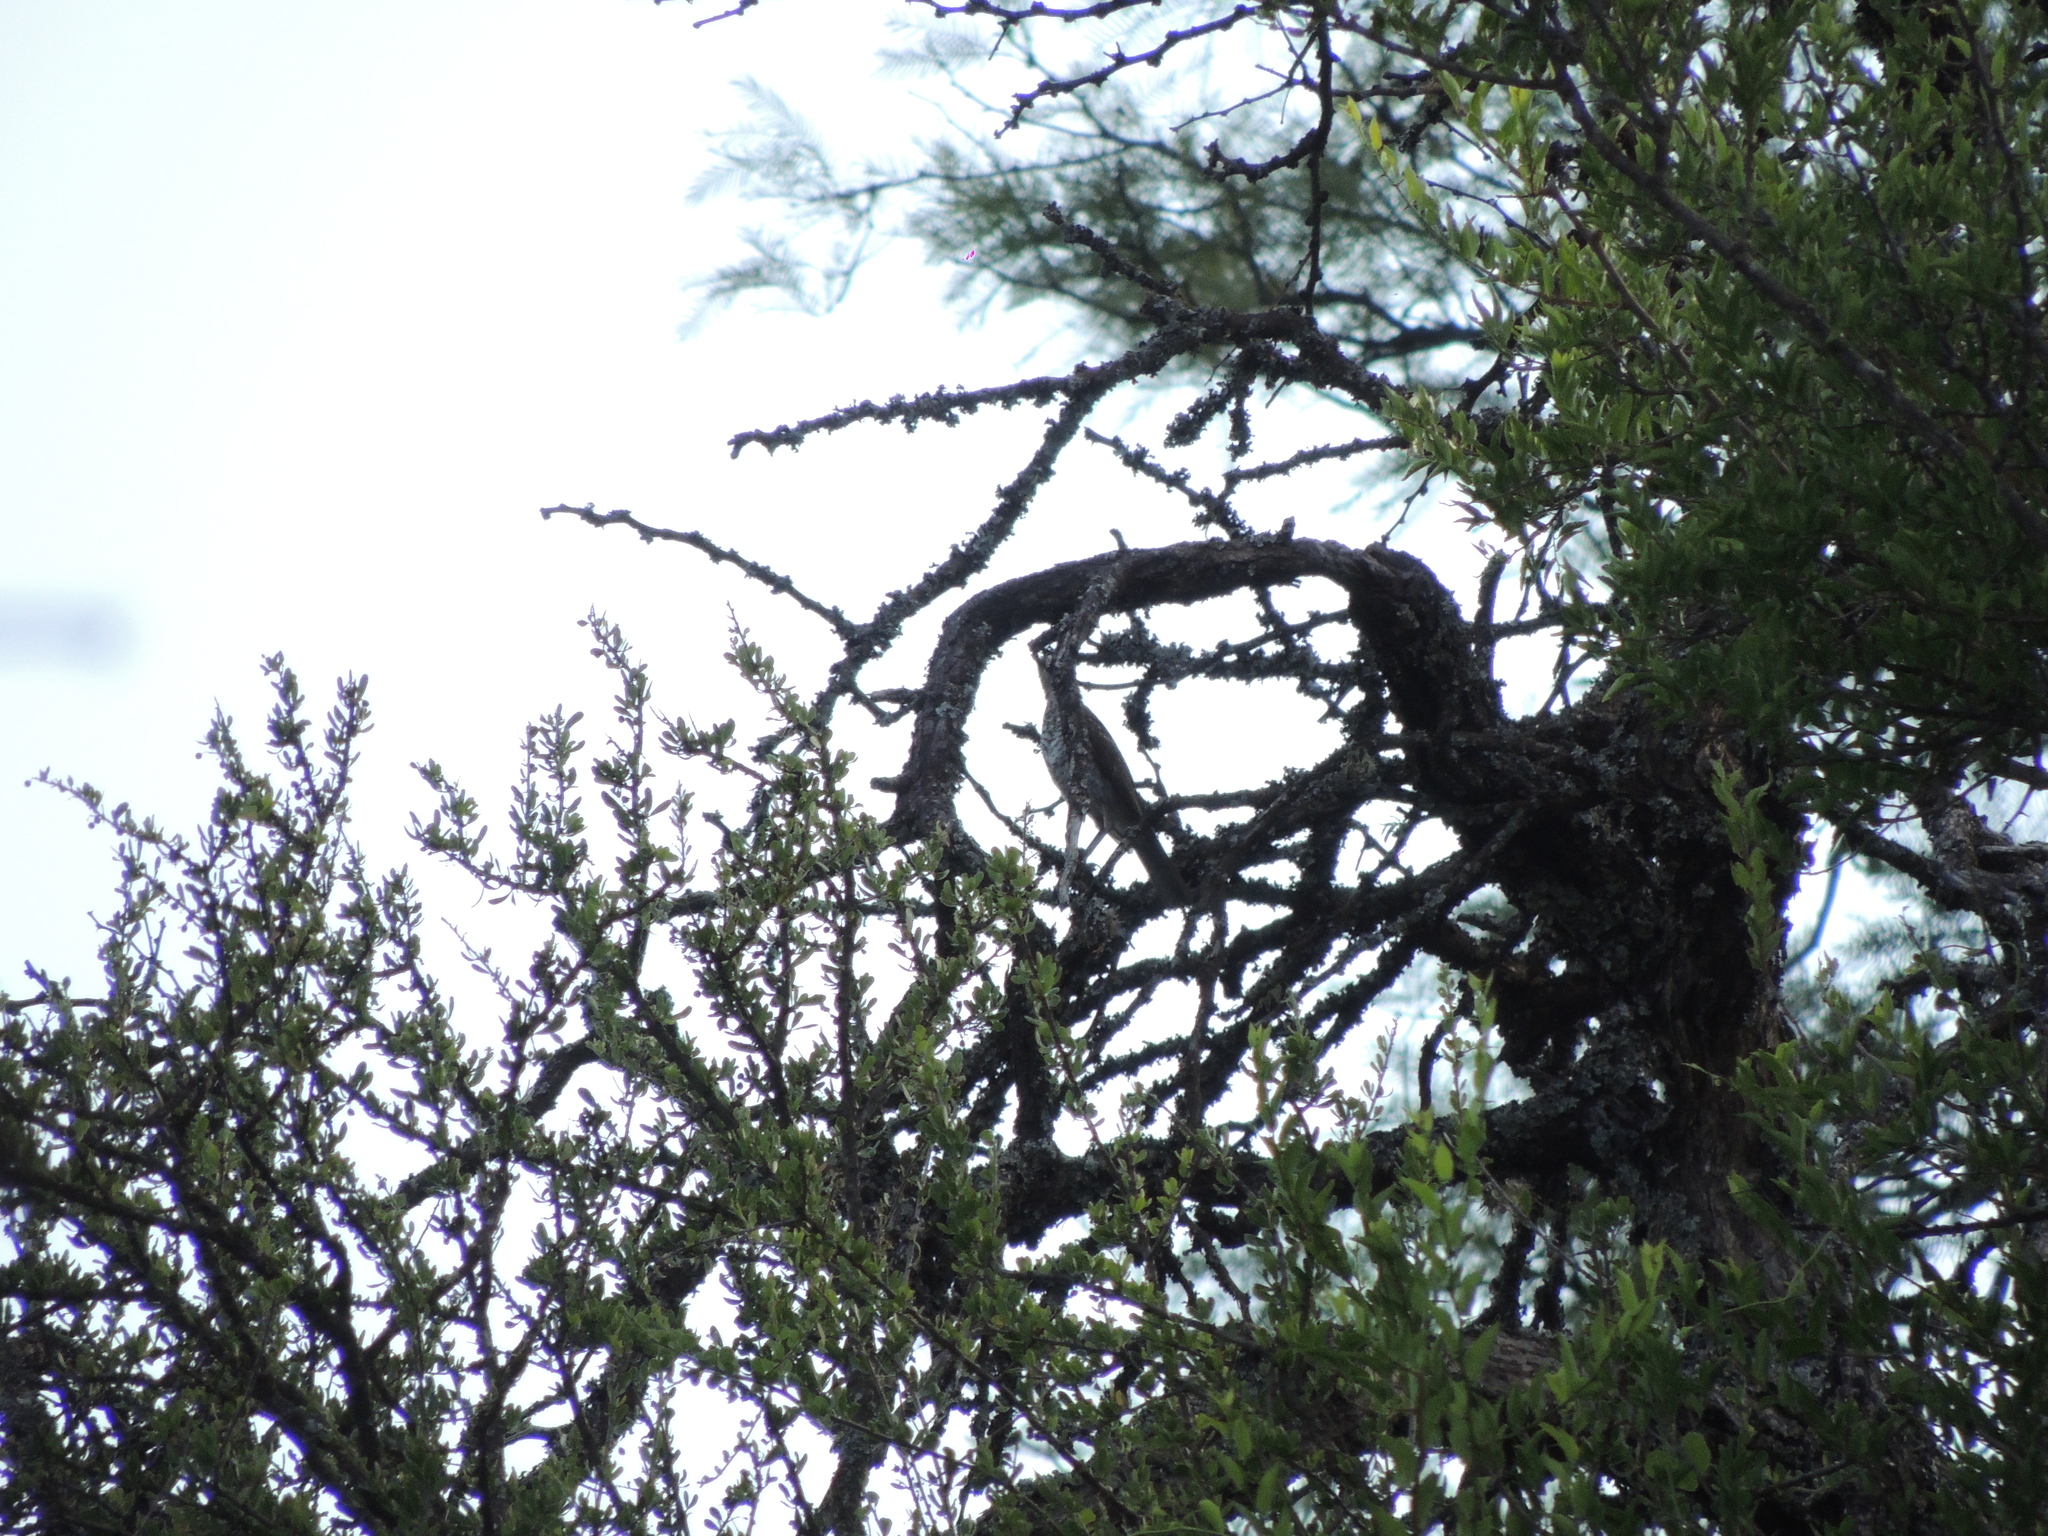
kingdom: Animalia
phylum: Chordata
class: Aves
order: Passeriformes
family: Turdidae
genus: Turdus
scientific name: Turdus amaurochalinus
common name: Creamy-bellied thrush
